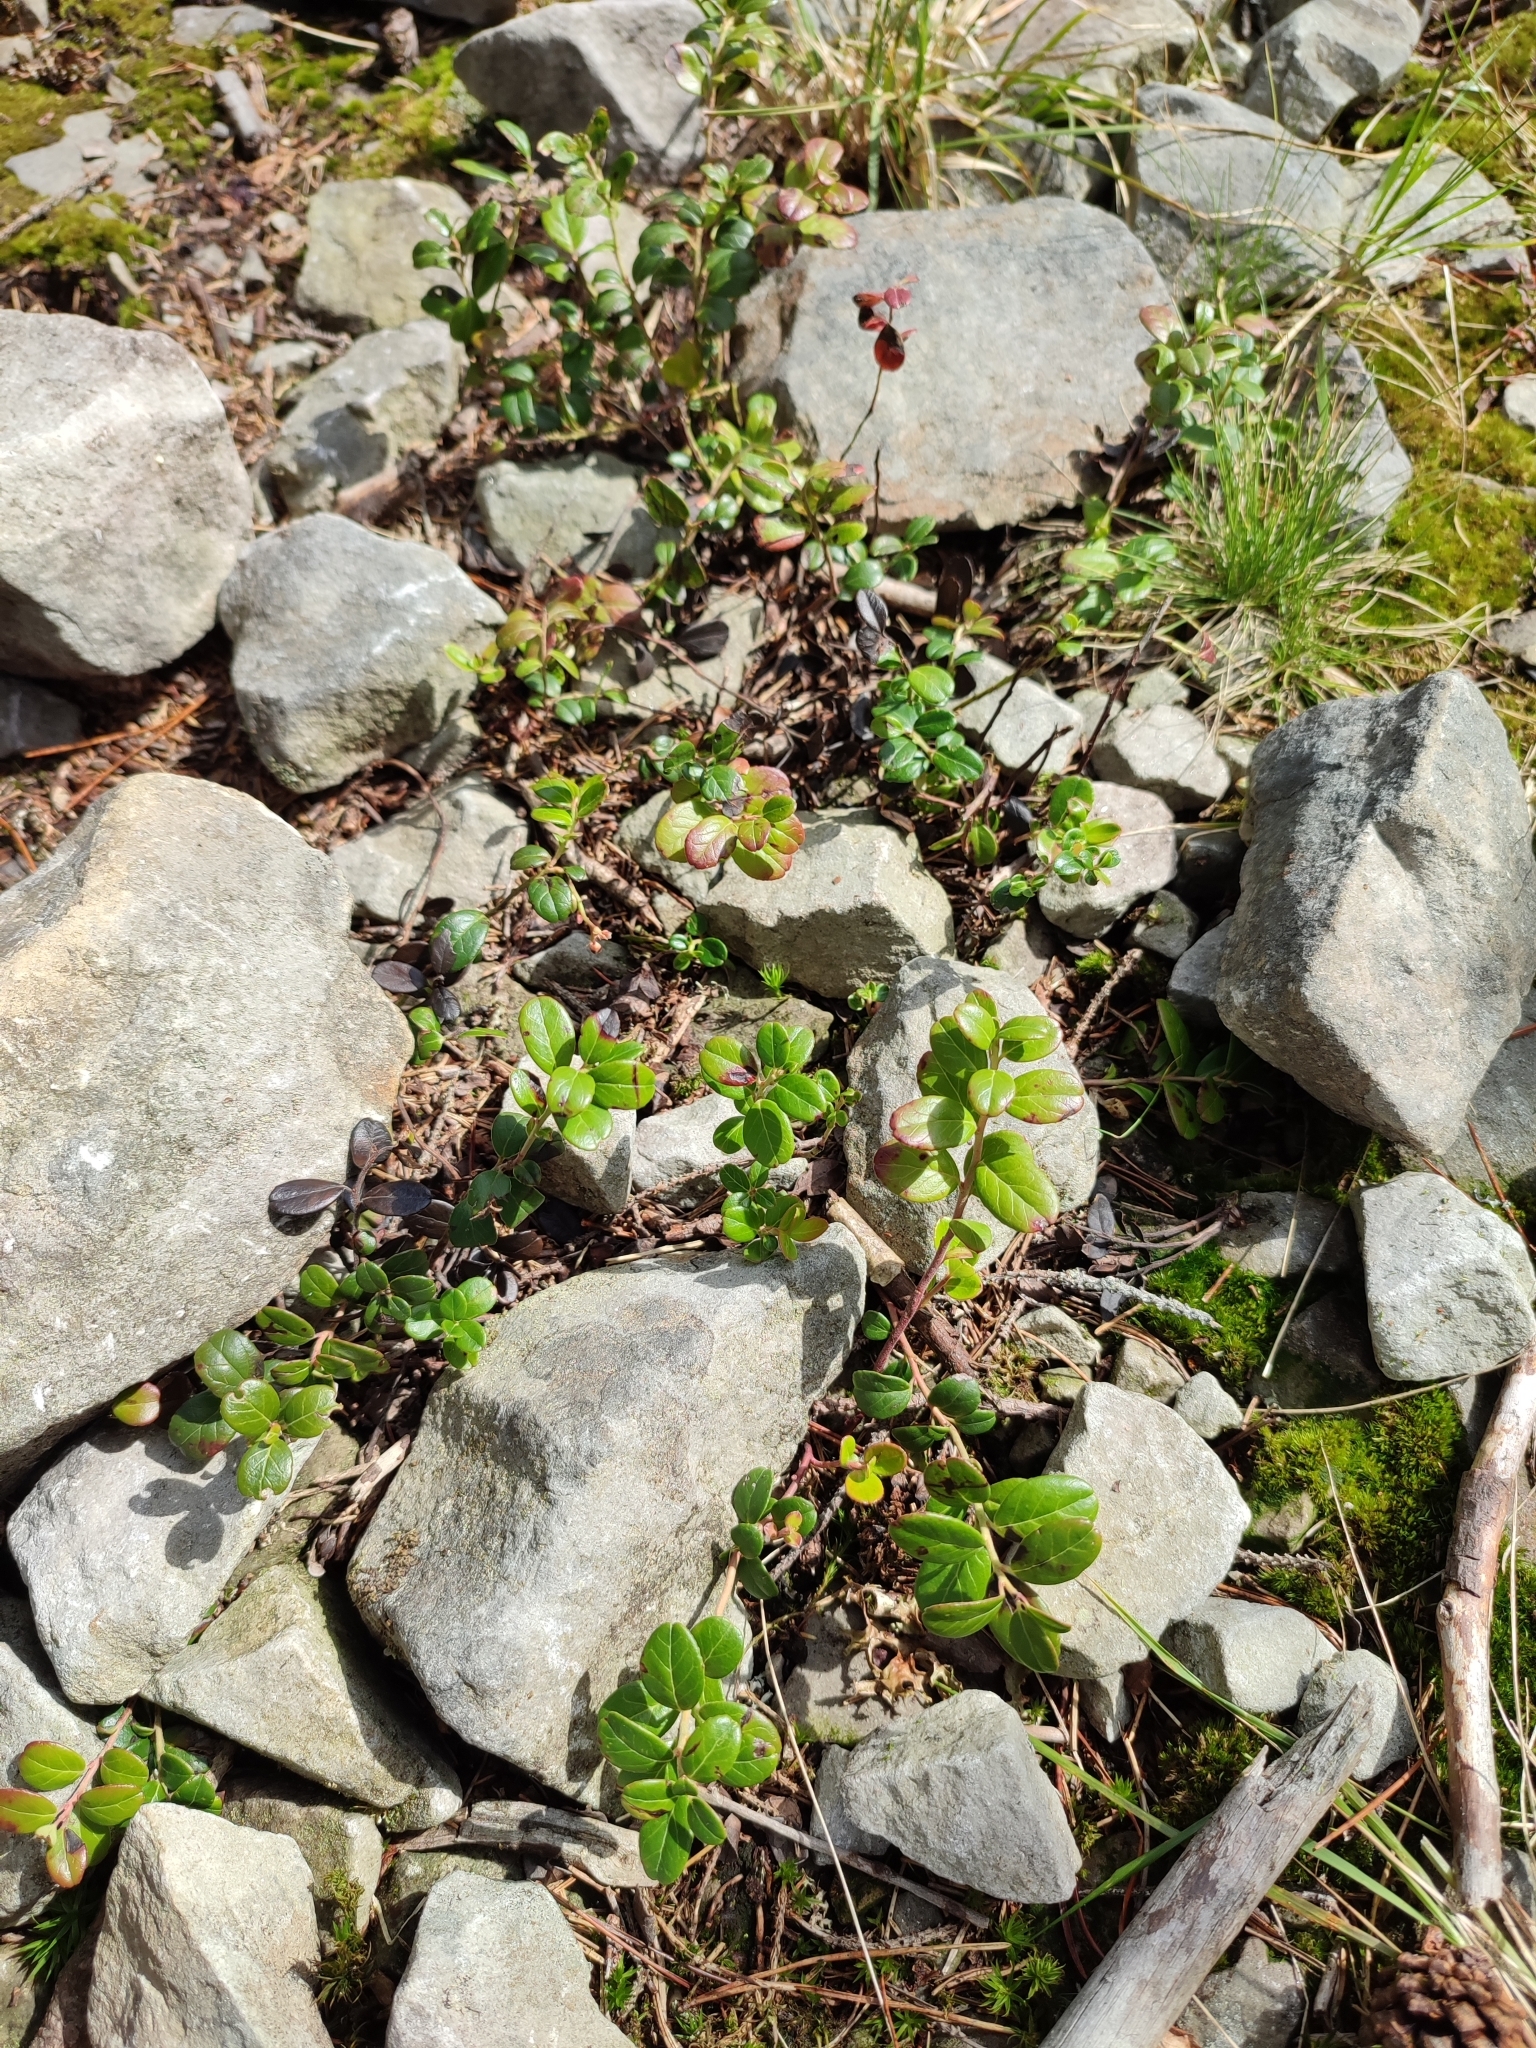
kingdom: Plantae
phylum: Tracheophyta
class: Magnoliopsida
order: Ericales
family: Ericaceae
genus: Vaccinium
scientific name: Vaccinium vitis-idaea
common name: Cowberry
